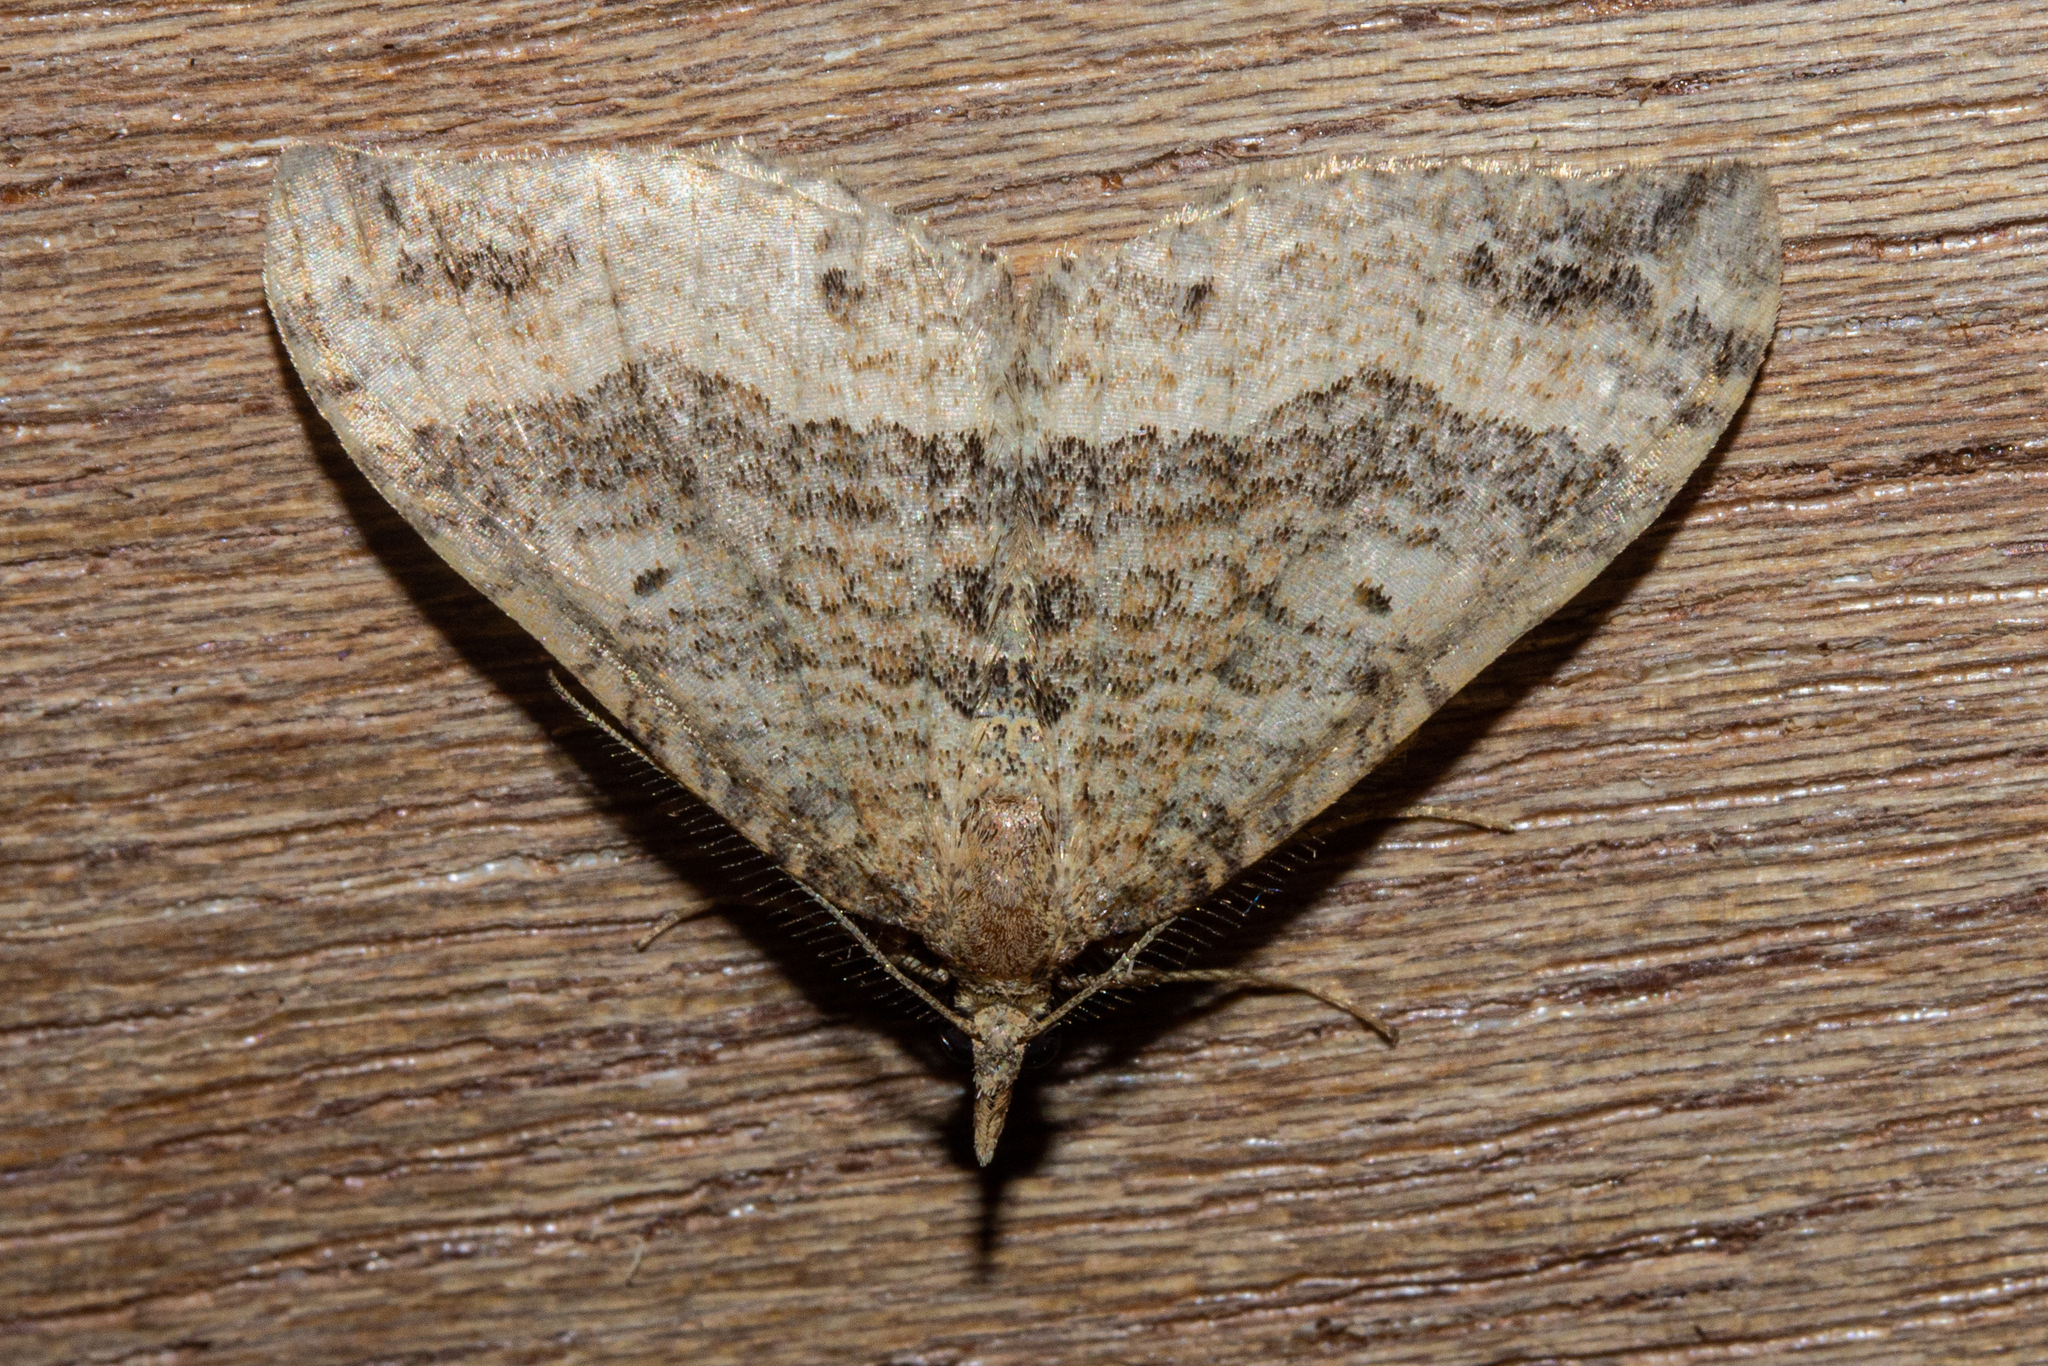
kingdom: Animalia
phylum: Arthropoda
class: Insecta
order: Lepidoptera
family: Geometridae
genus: Homodotis
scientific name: Homodotis falcata
